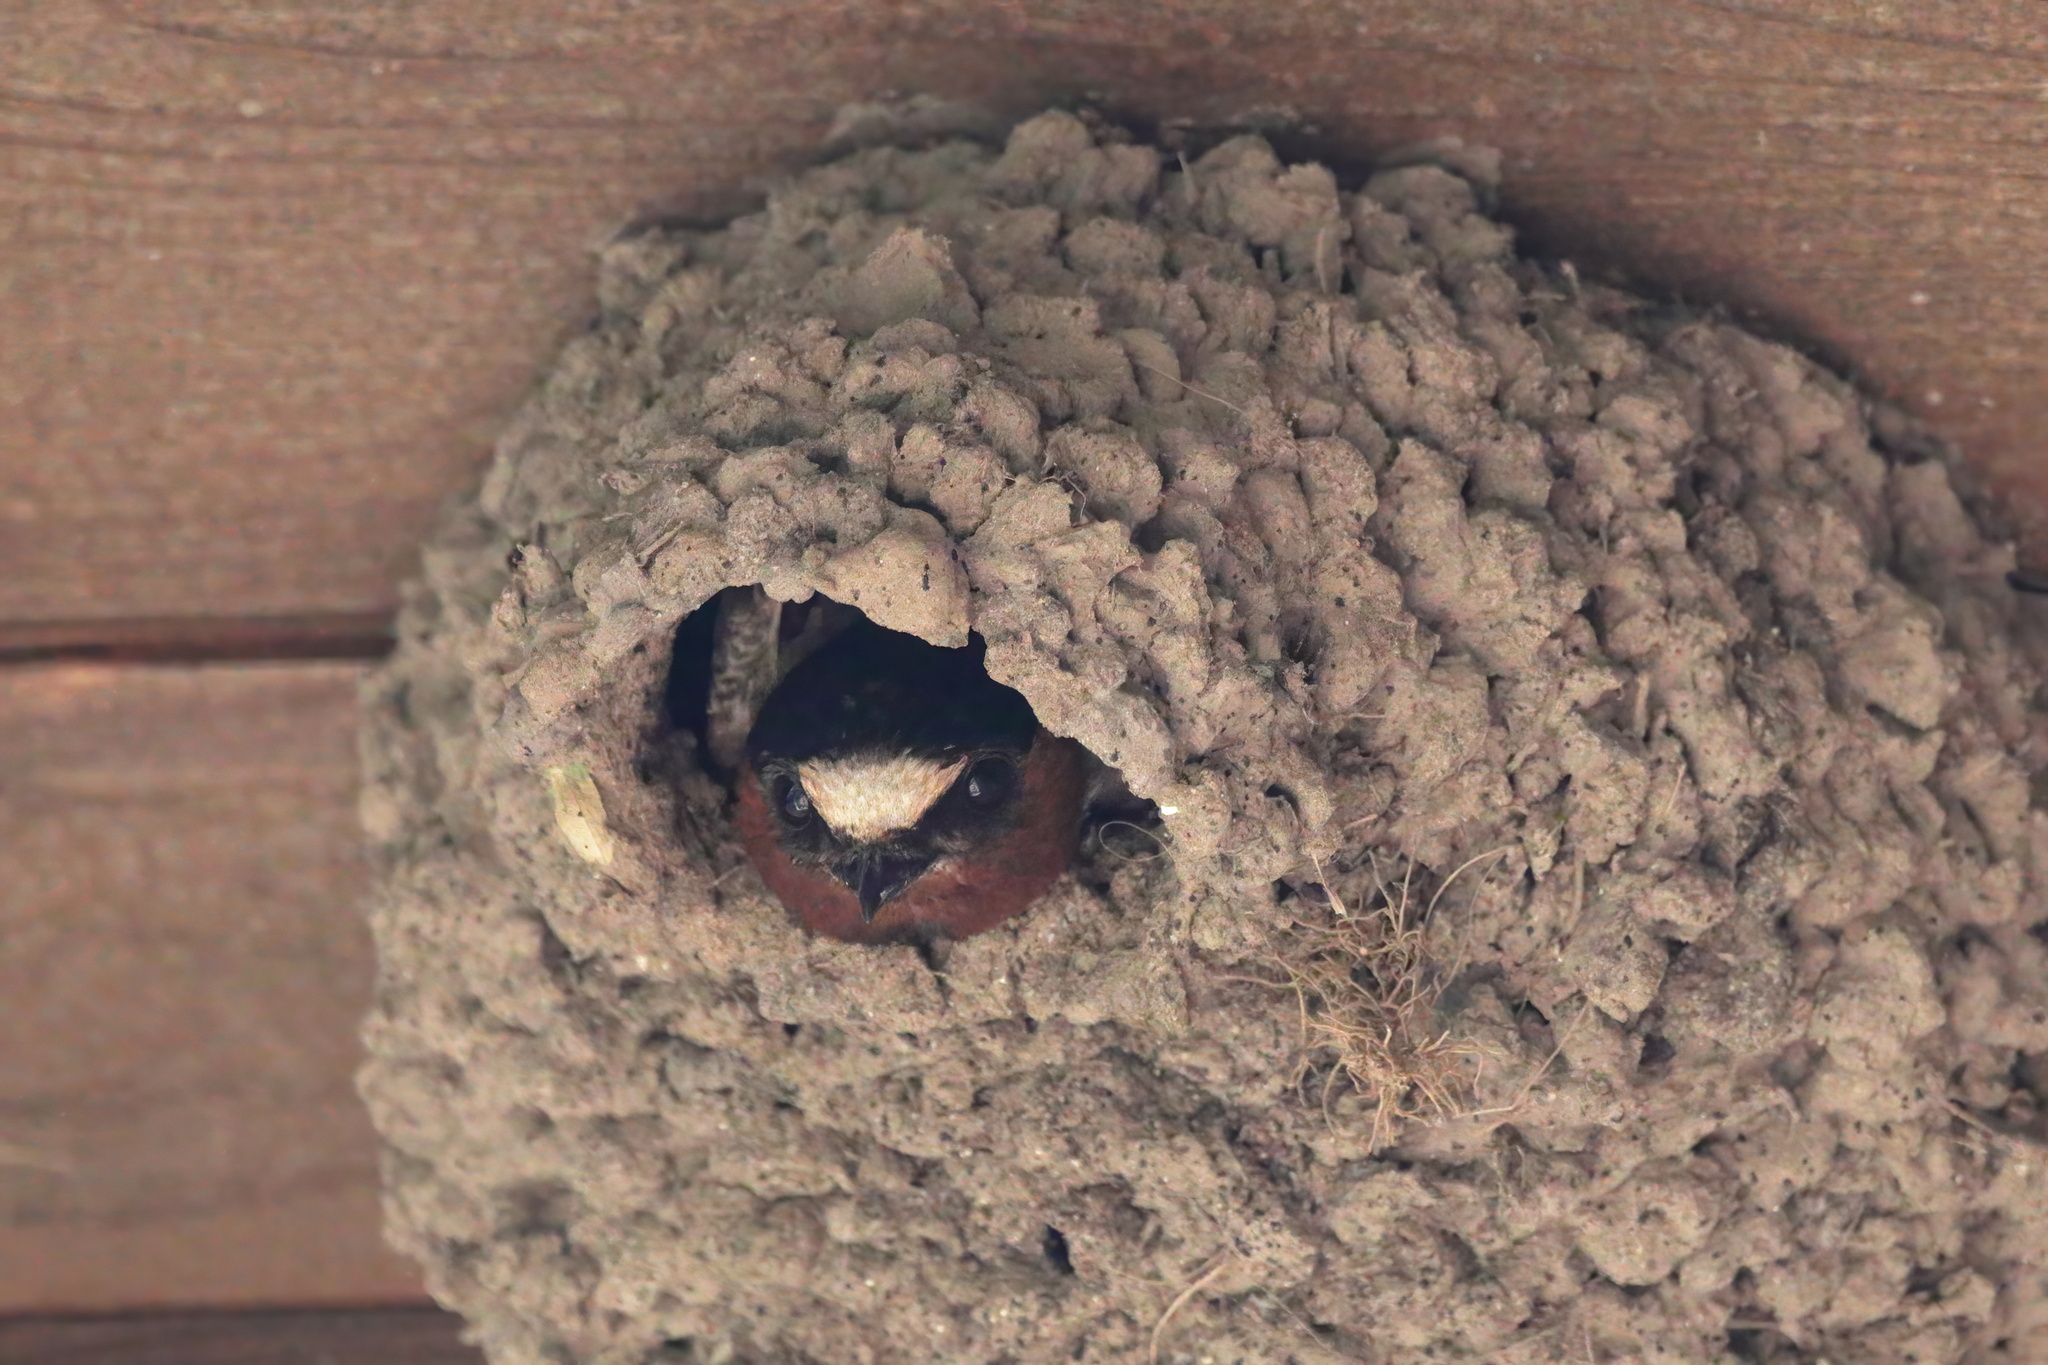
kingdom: Animalia
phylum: Chordata
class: Aves
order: Passeriformes
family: Hirundinidae
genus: Petrochelidon
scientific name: Petrochelidon pyrrhonota
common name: American cliff swallow
